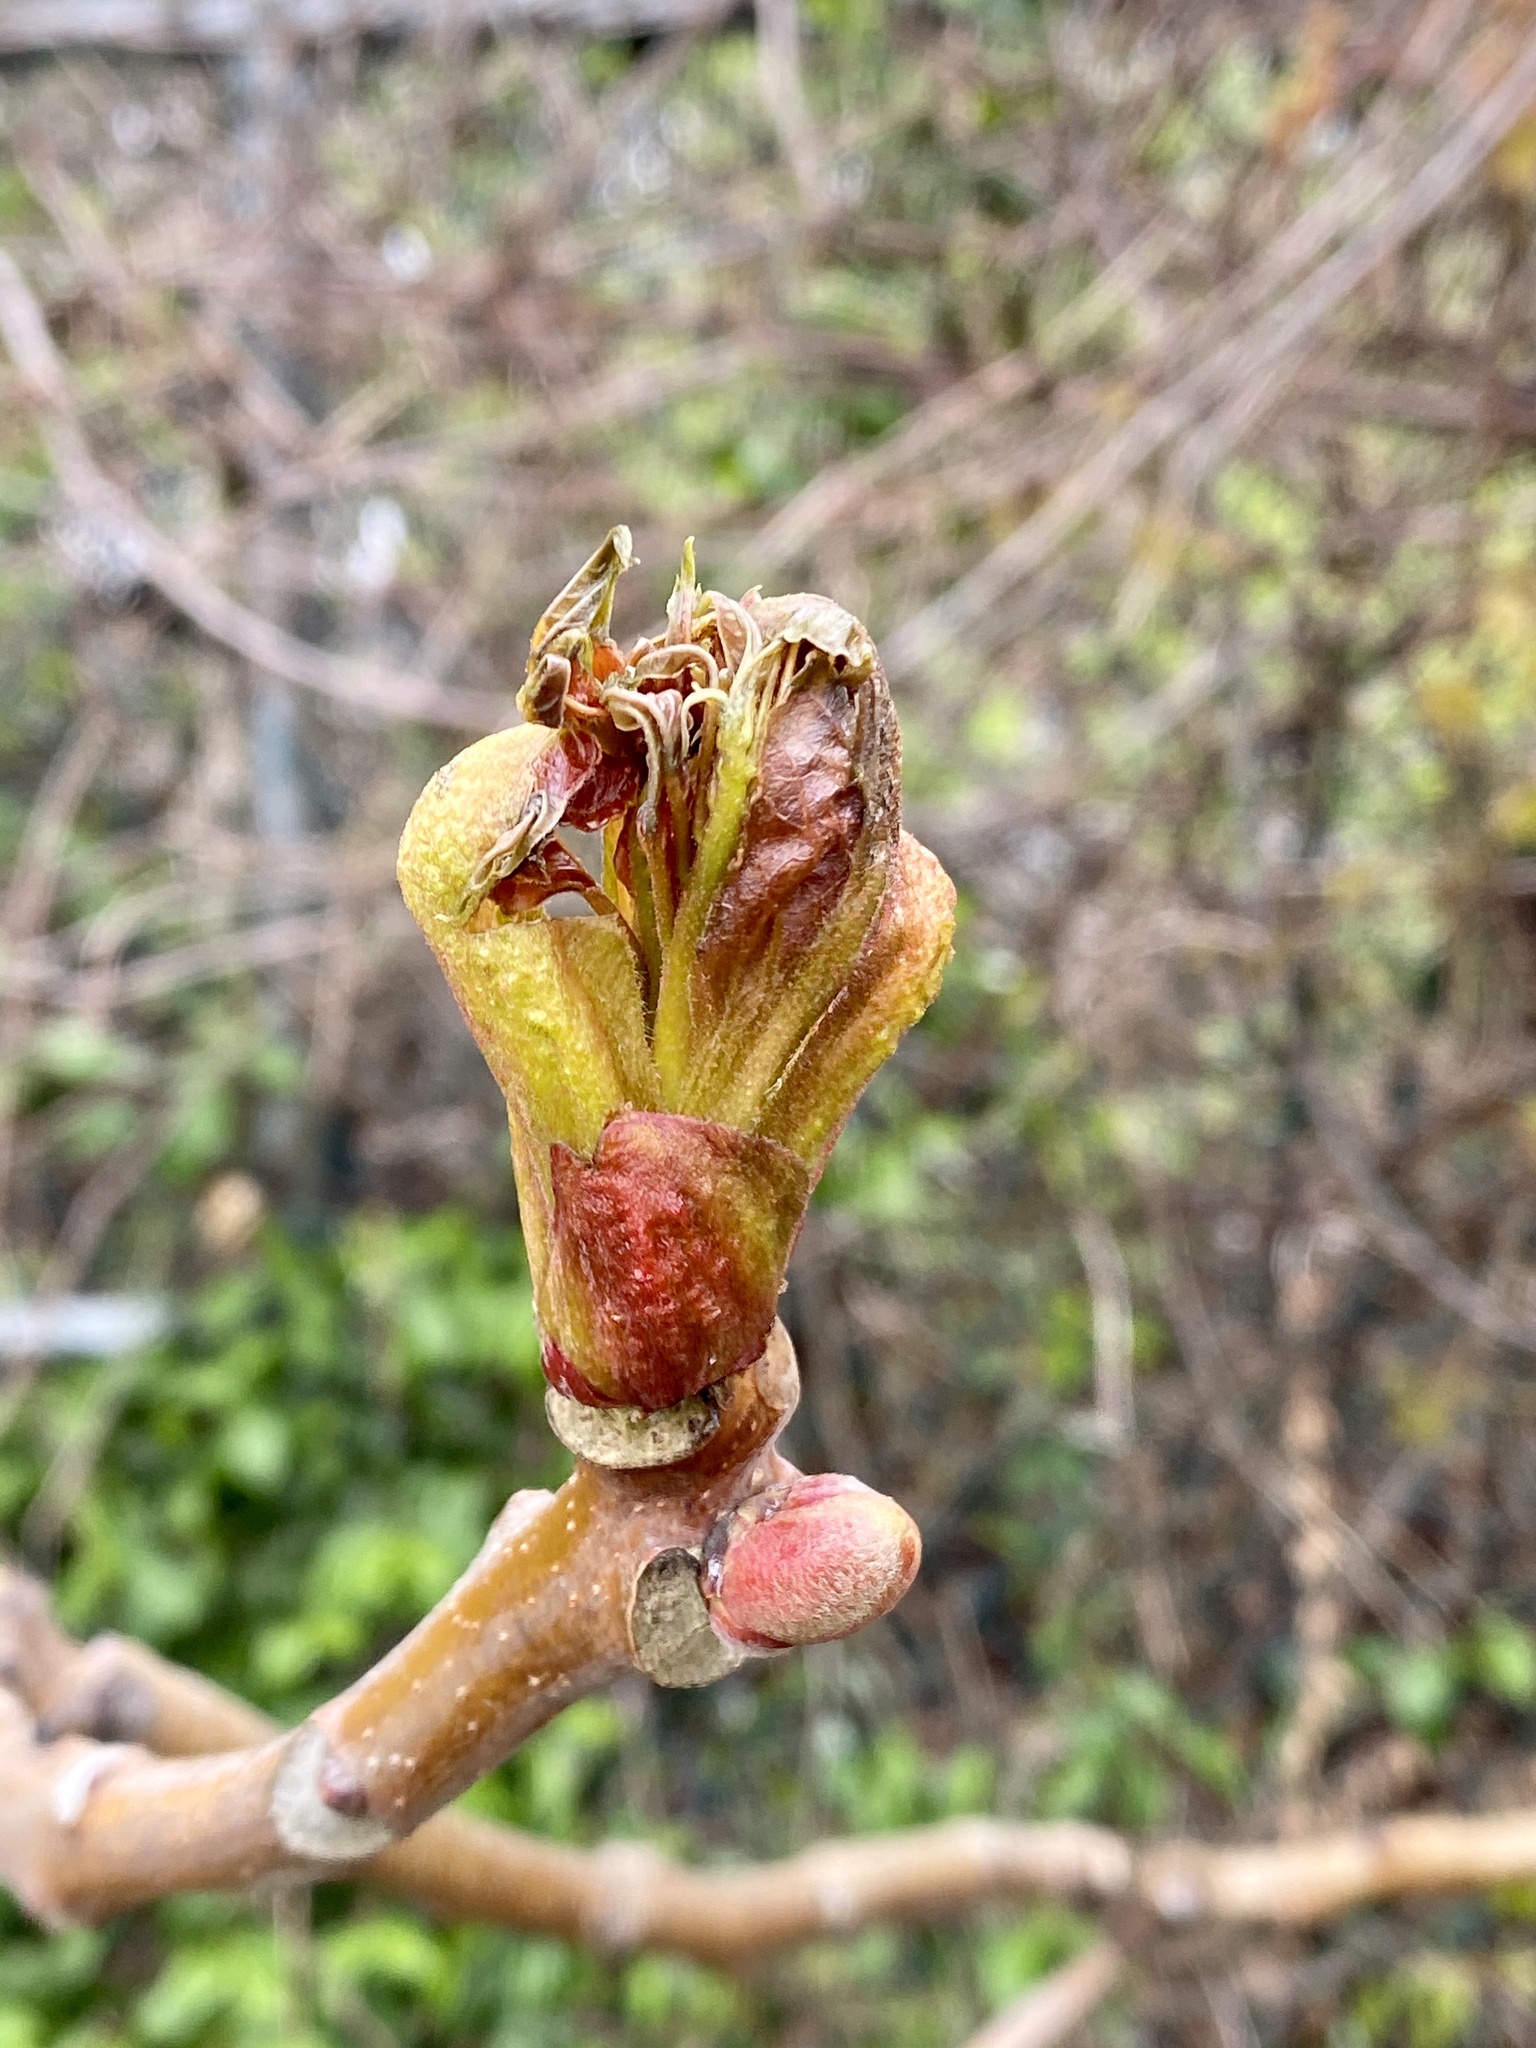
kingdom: Plantae
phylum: Tracheophyta
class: Magnoliopsida
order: Sapindales
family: Simaroubaceae
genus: Ailanthus
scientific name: Ailanthus altissima
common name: Tree-of-heaven
